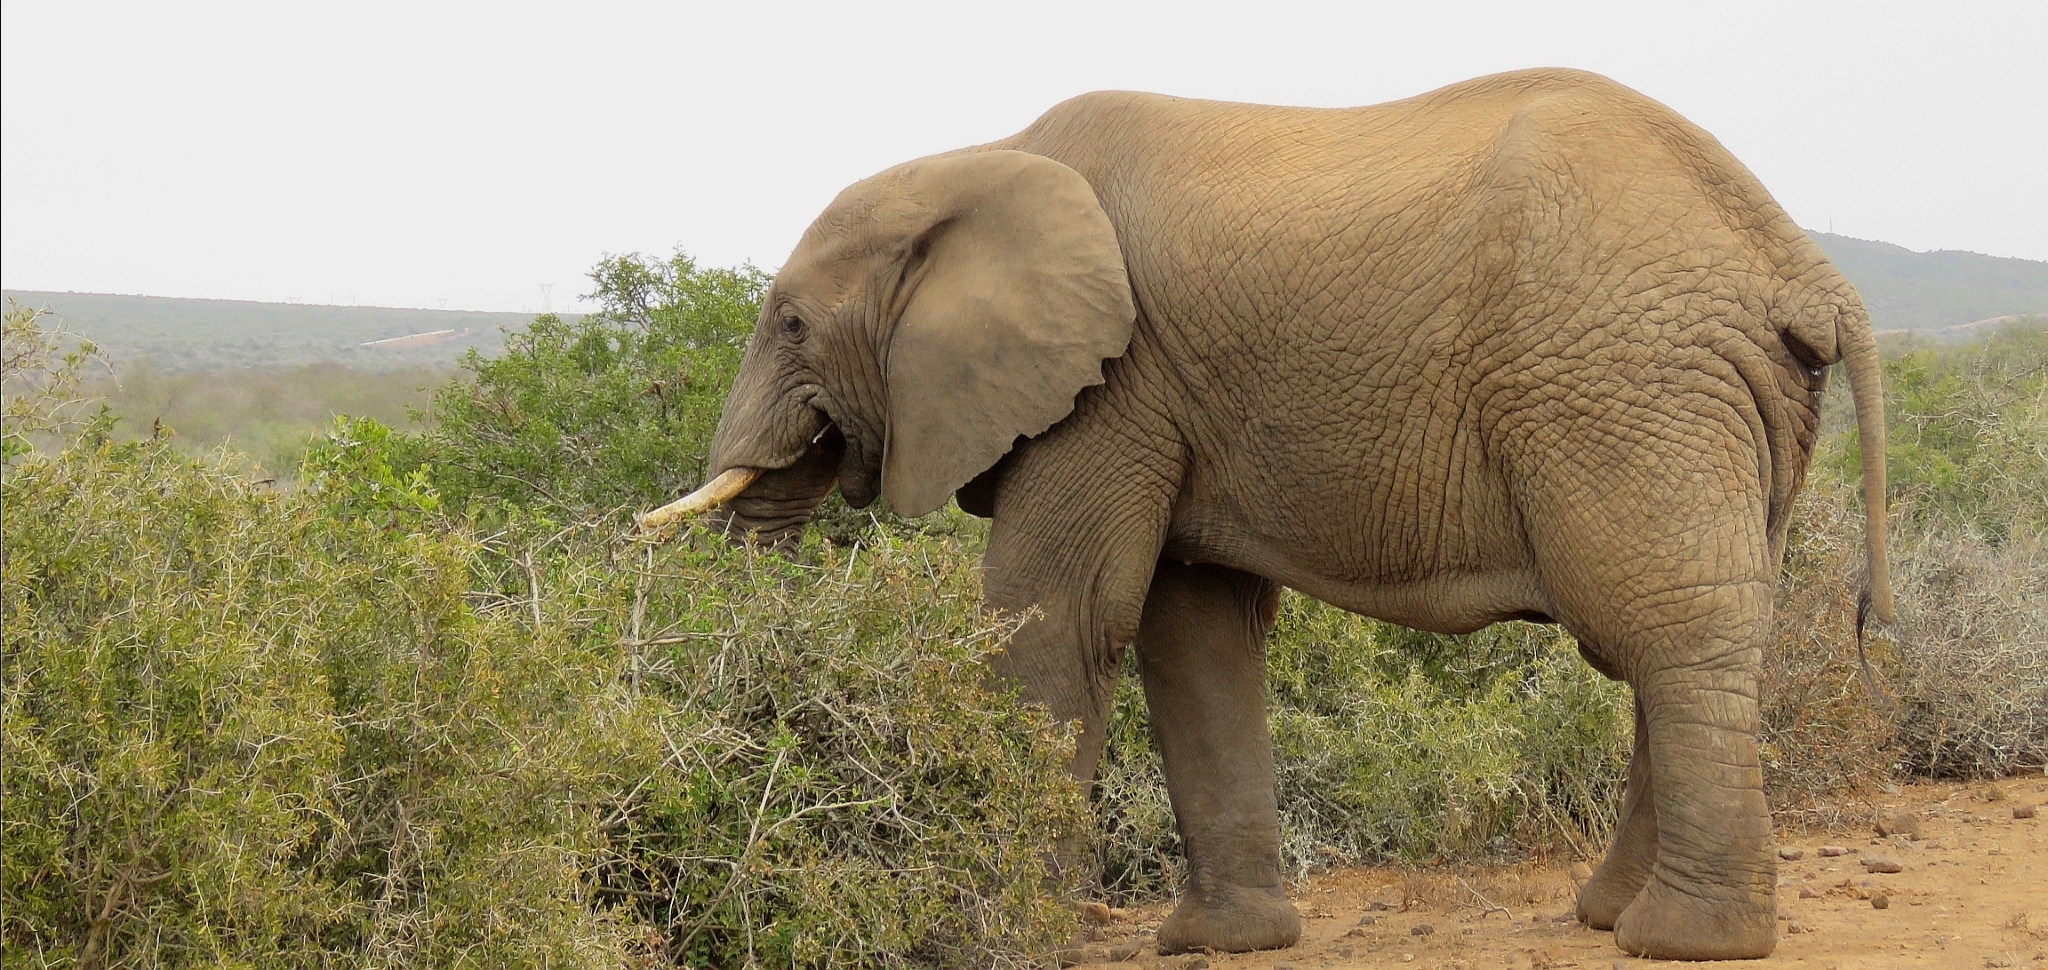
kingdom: Animalia
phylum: Chordata
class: Mammalia
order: Proboscidea
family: Elephantidae
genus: Loxodonta
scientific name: Loxodonta africana
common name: African elephant
